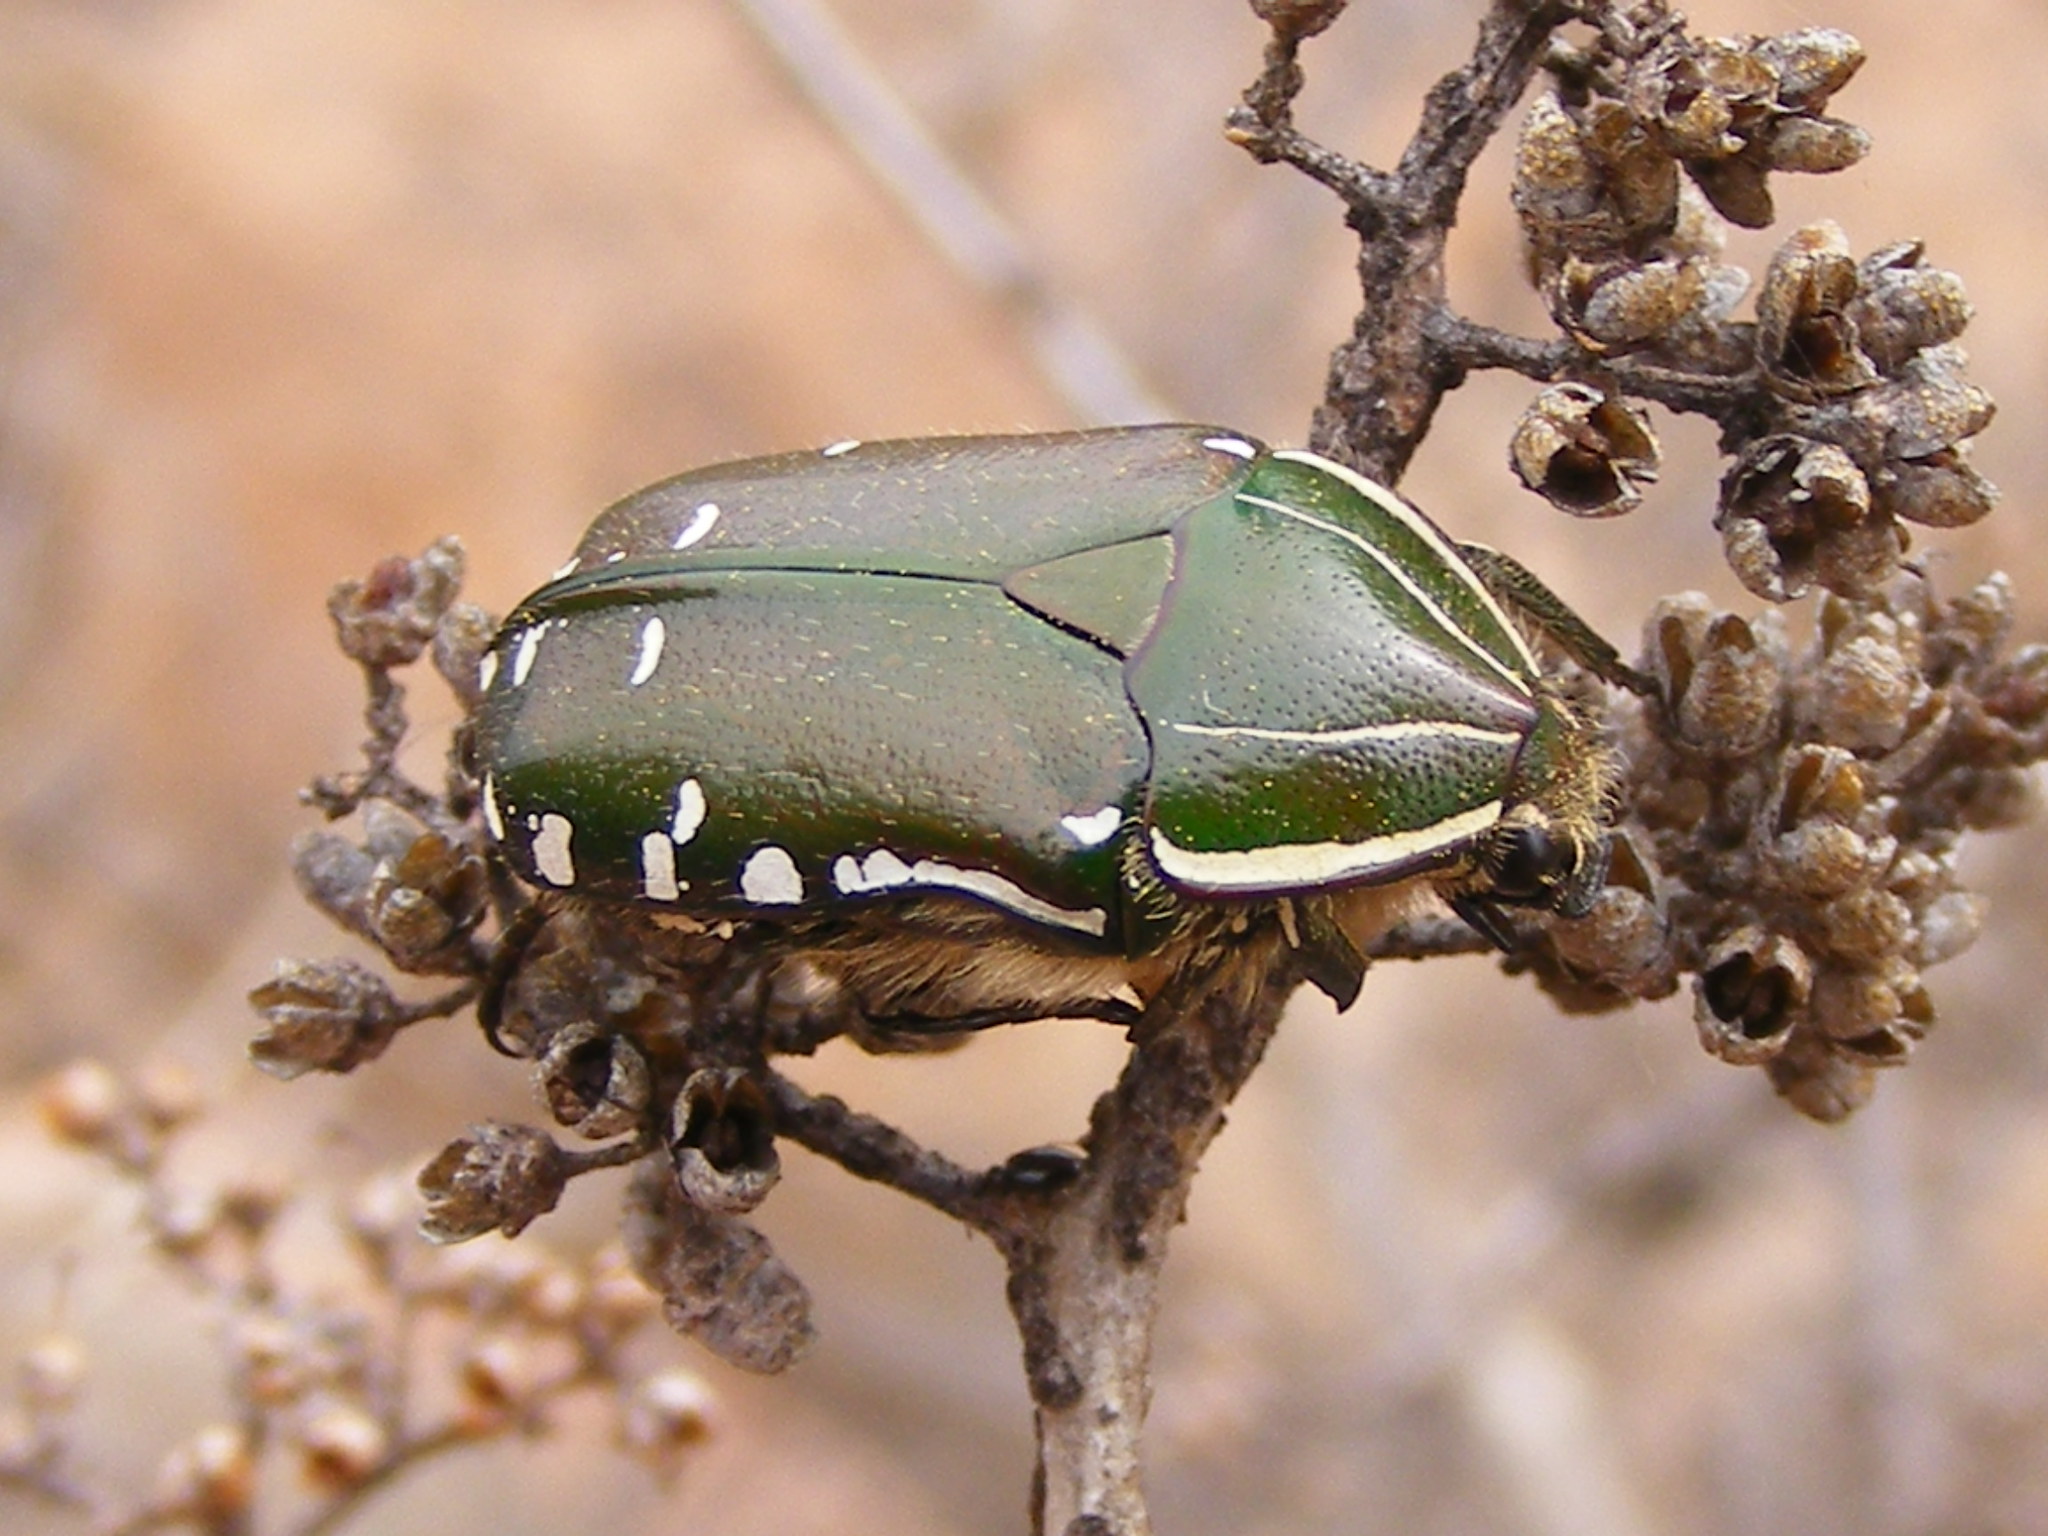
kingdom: Animalia
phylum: Arthropoda
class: Insecta
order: Coleoptera
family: Scarabaeidae
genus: Rhabdotis
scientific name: Rhabdotis intermedia
